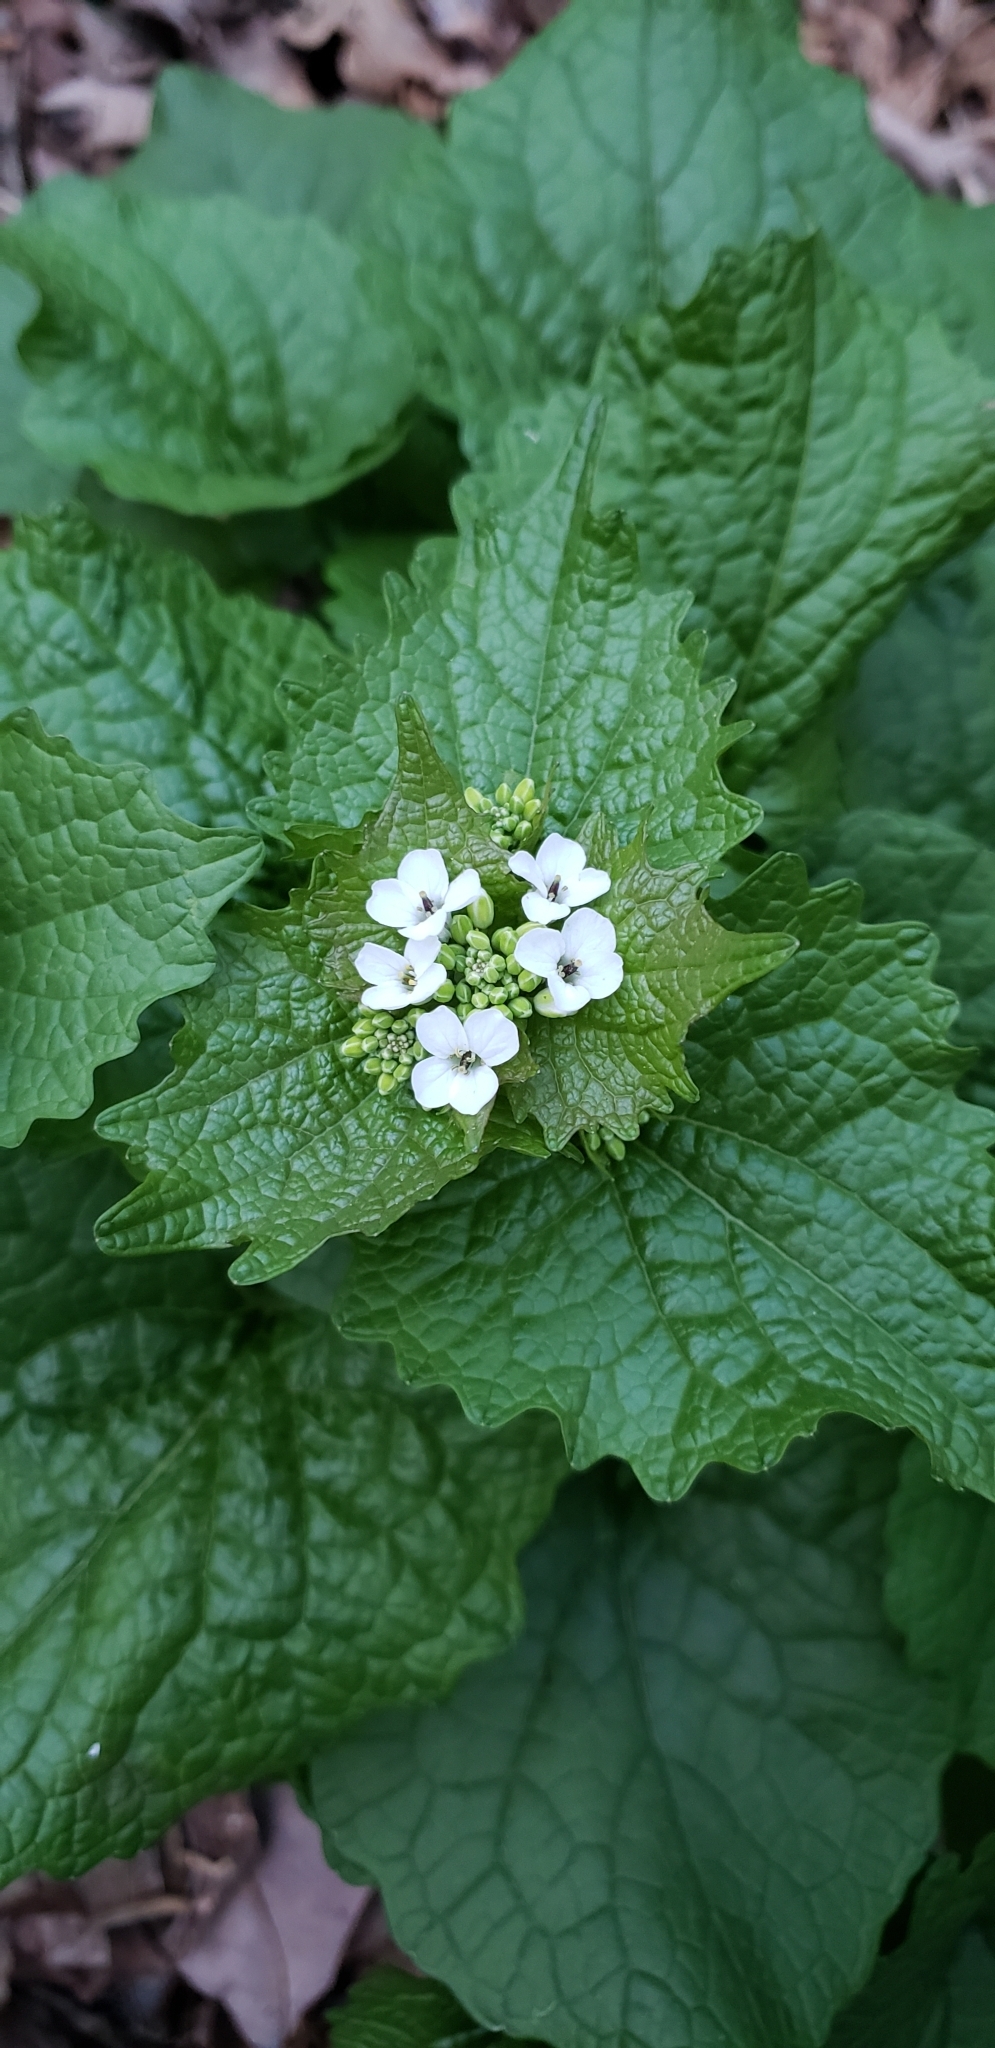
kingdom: Plantae
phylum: Tracheophyta
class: Magnoliopsida
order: Brassicales
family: Brassicaceae
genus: Alliaria
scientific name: Alliaria petiolata
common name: Garlic mustard
